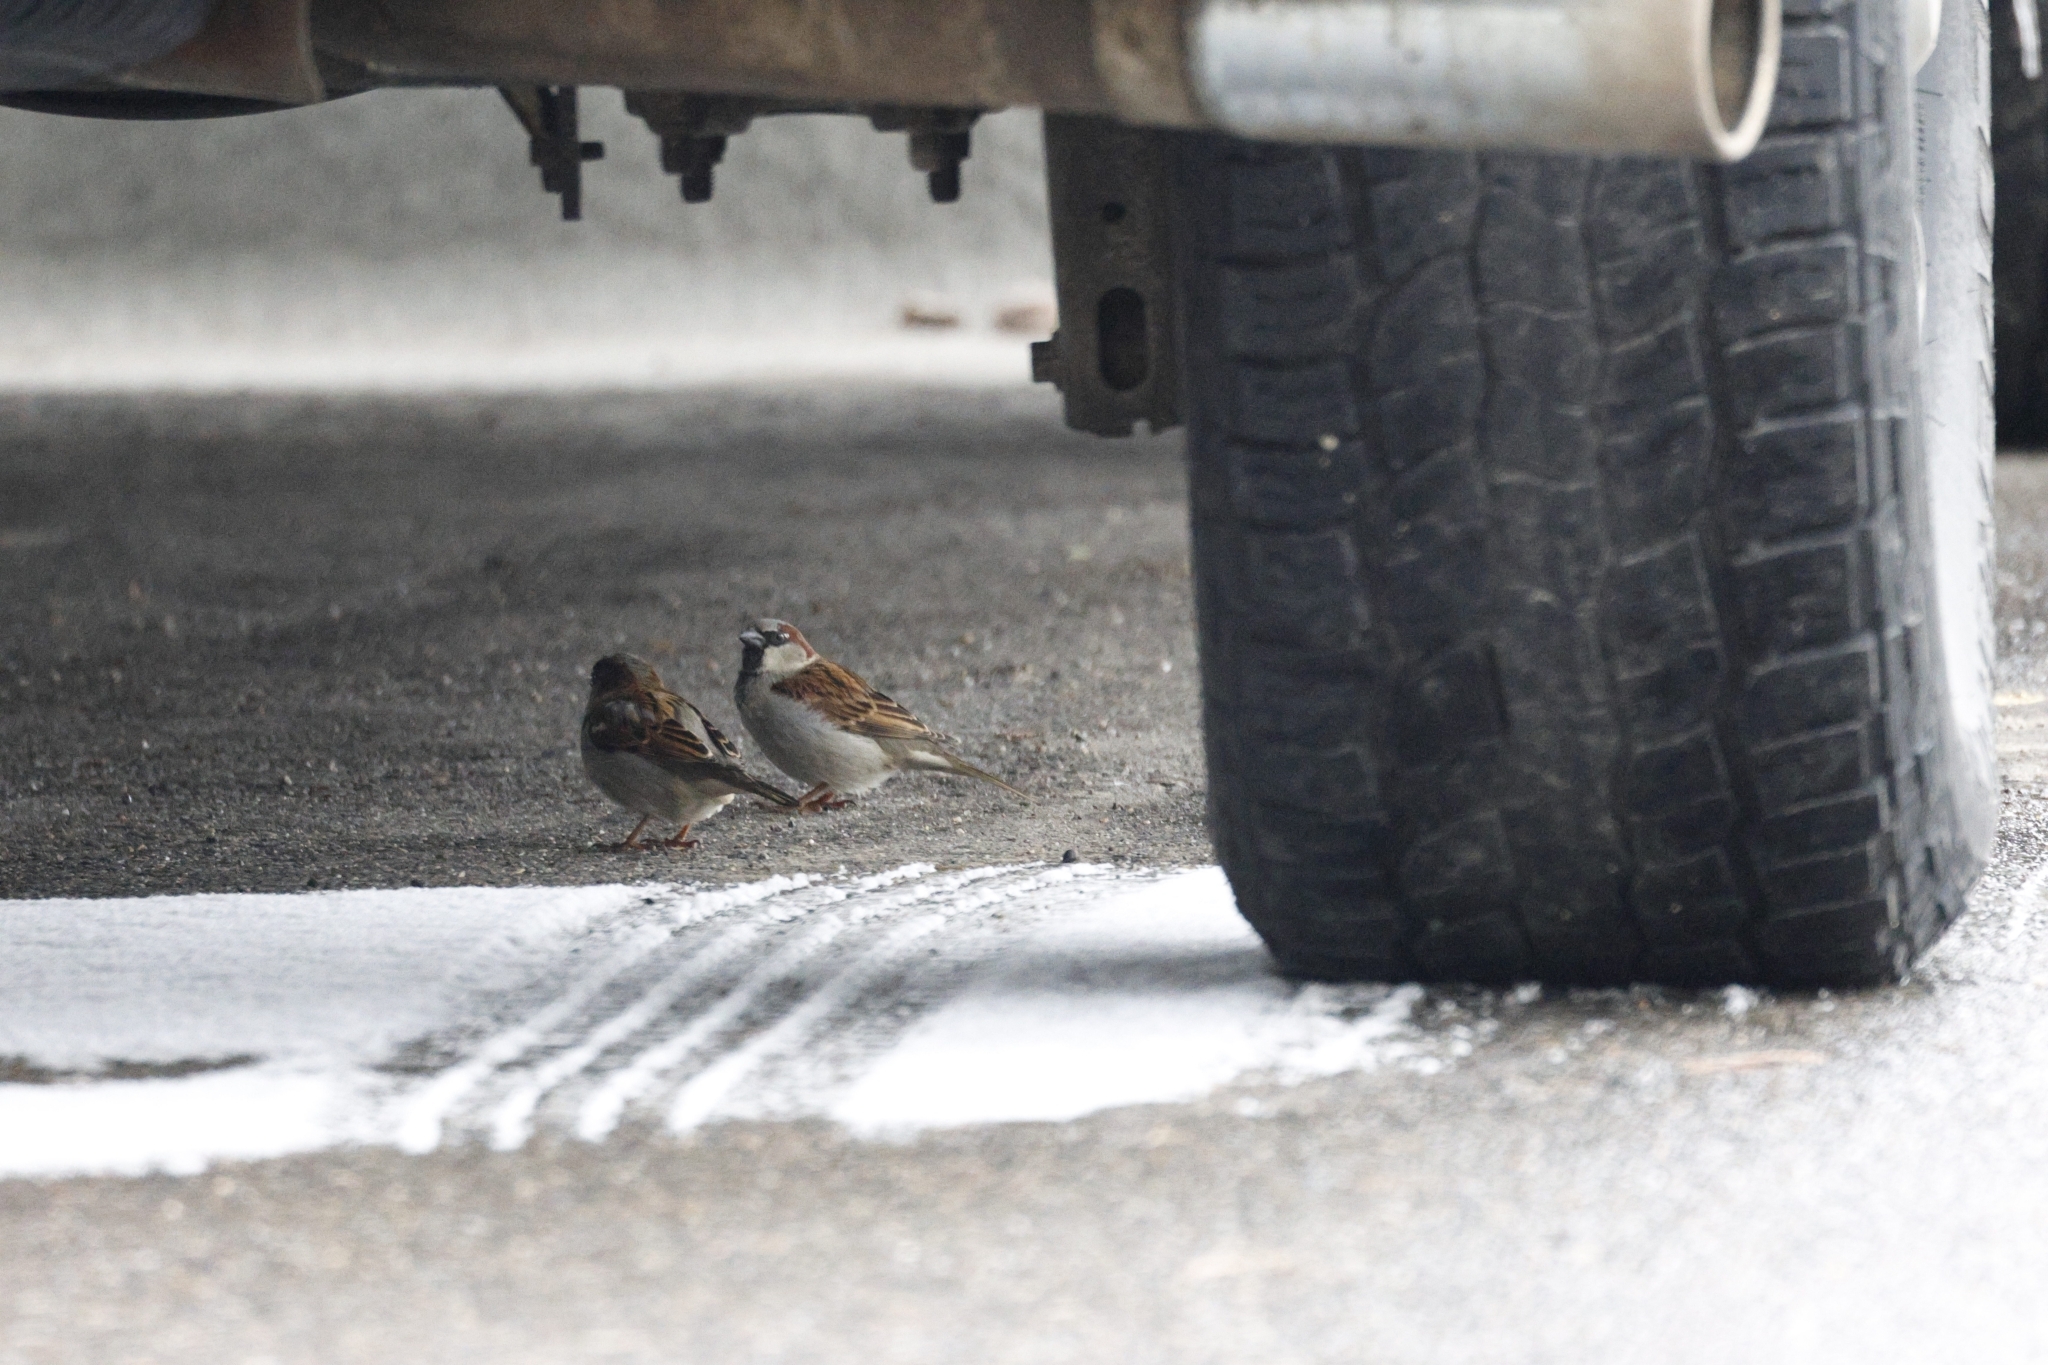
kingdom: Animalia
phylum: Chordata
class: Aves
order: Passeriformes
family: Passeridae
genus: Passer
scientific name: Passer domesticus
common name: House sparrow
